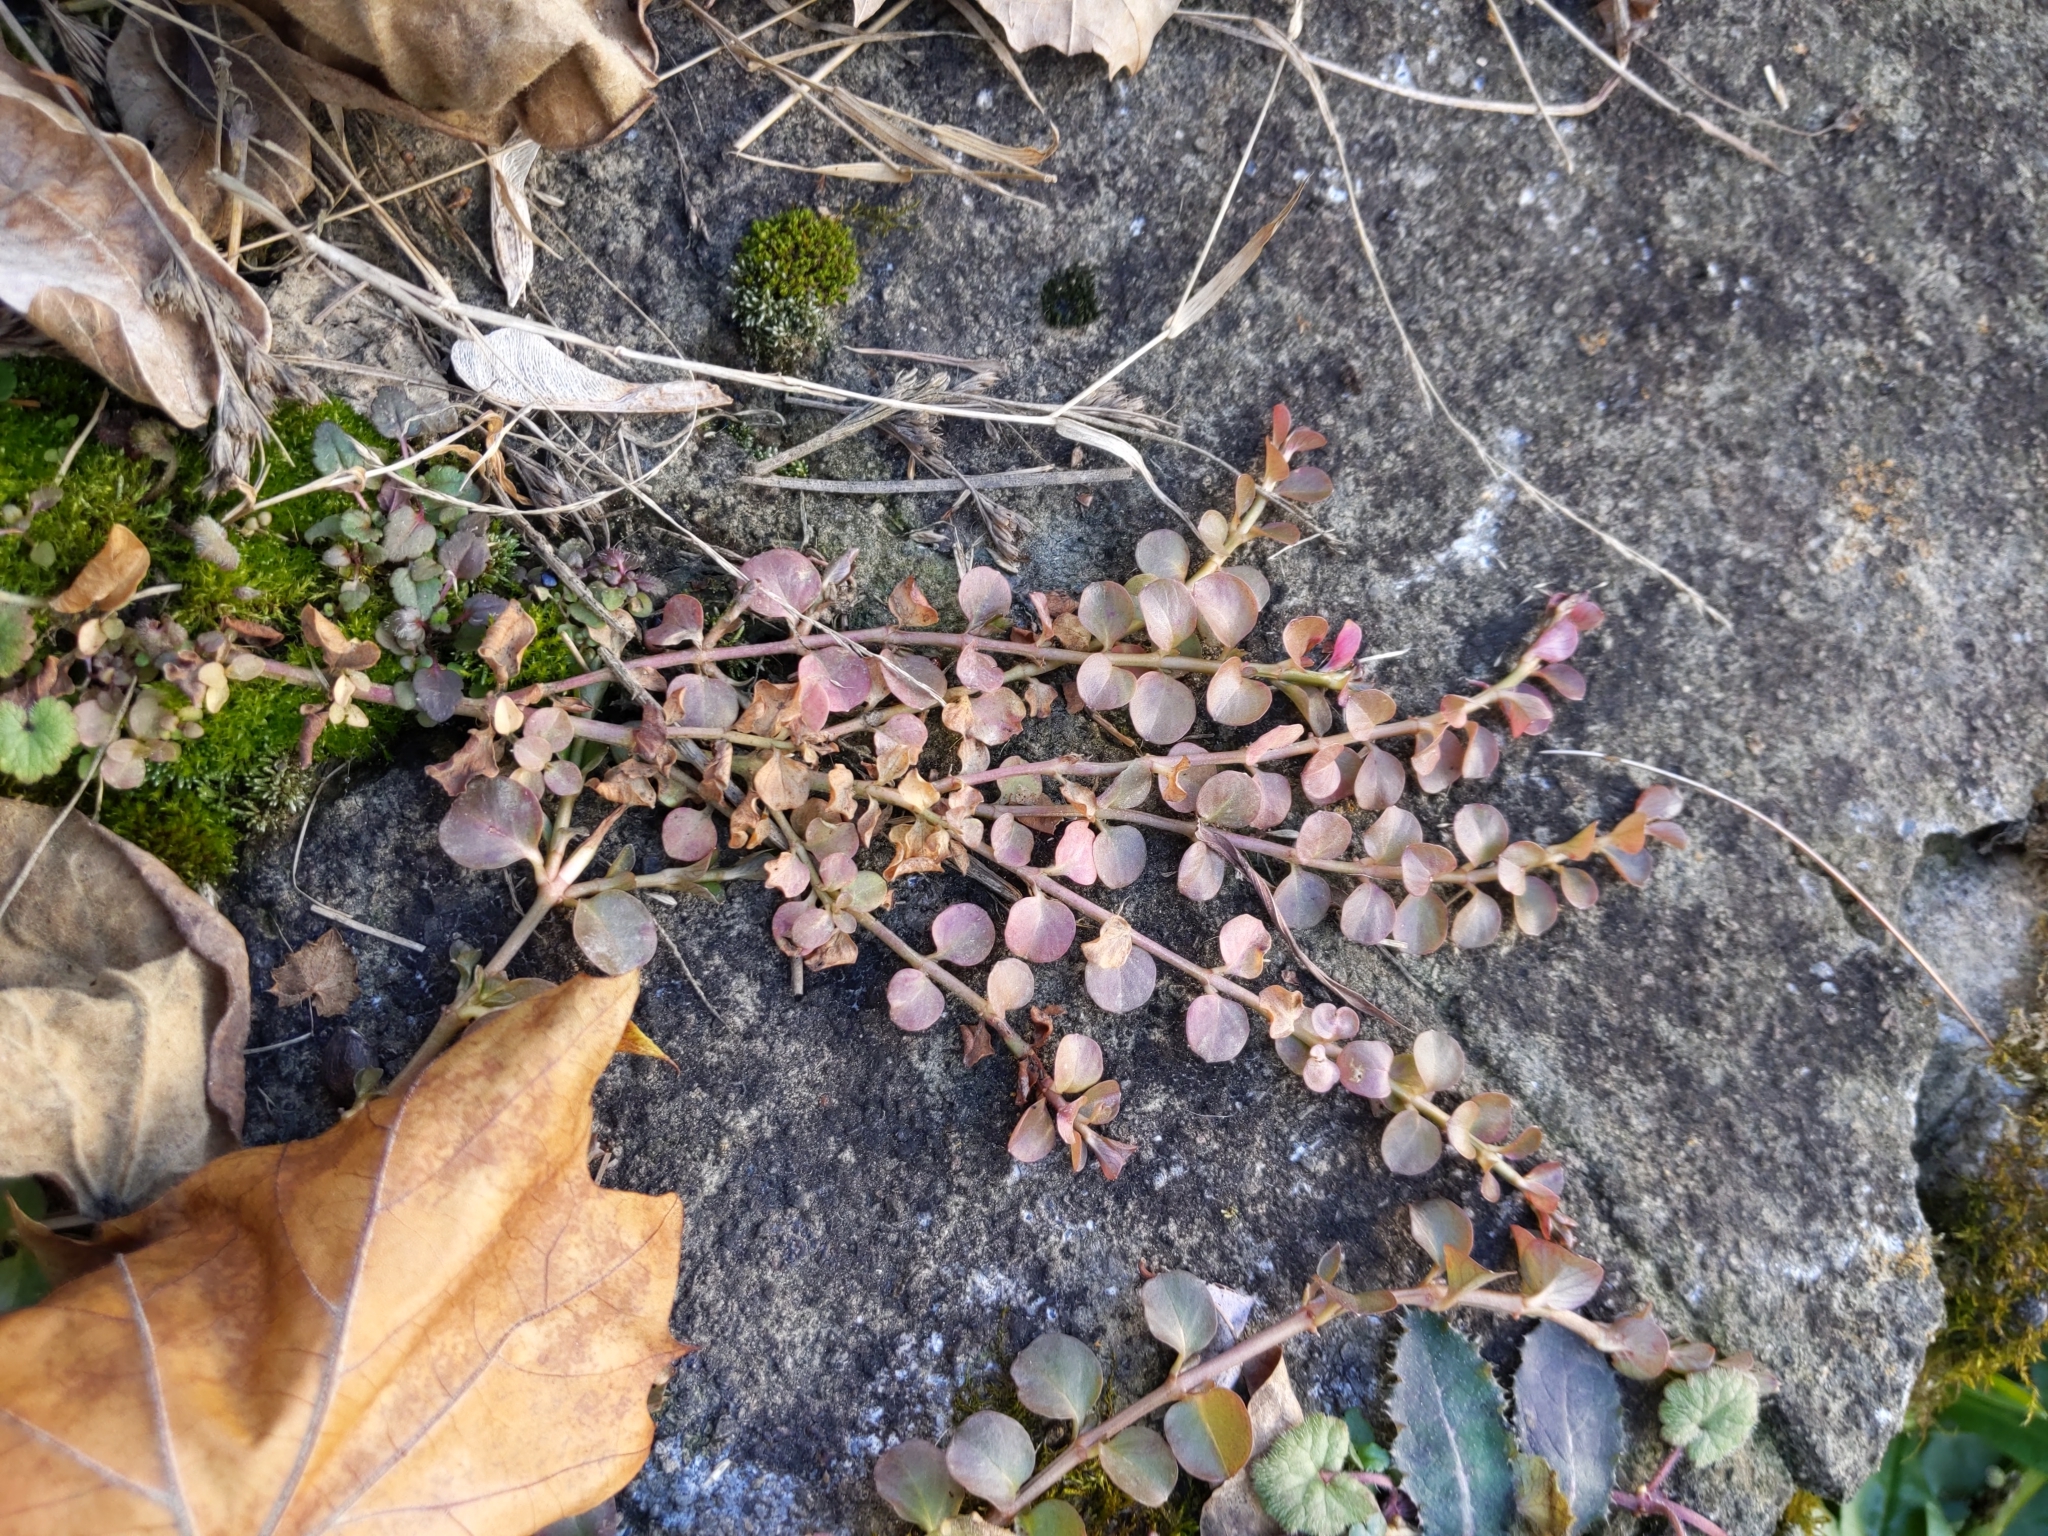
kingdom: Plantae
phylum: Tracheophyta
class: Magnoliopsida
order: Ericales
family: Primulaceae
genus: Lysimachia
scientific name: Lysimachia nummularia
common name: Moneywort
